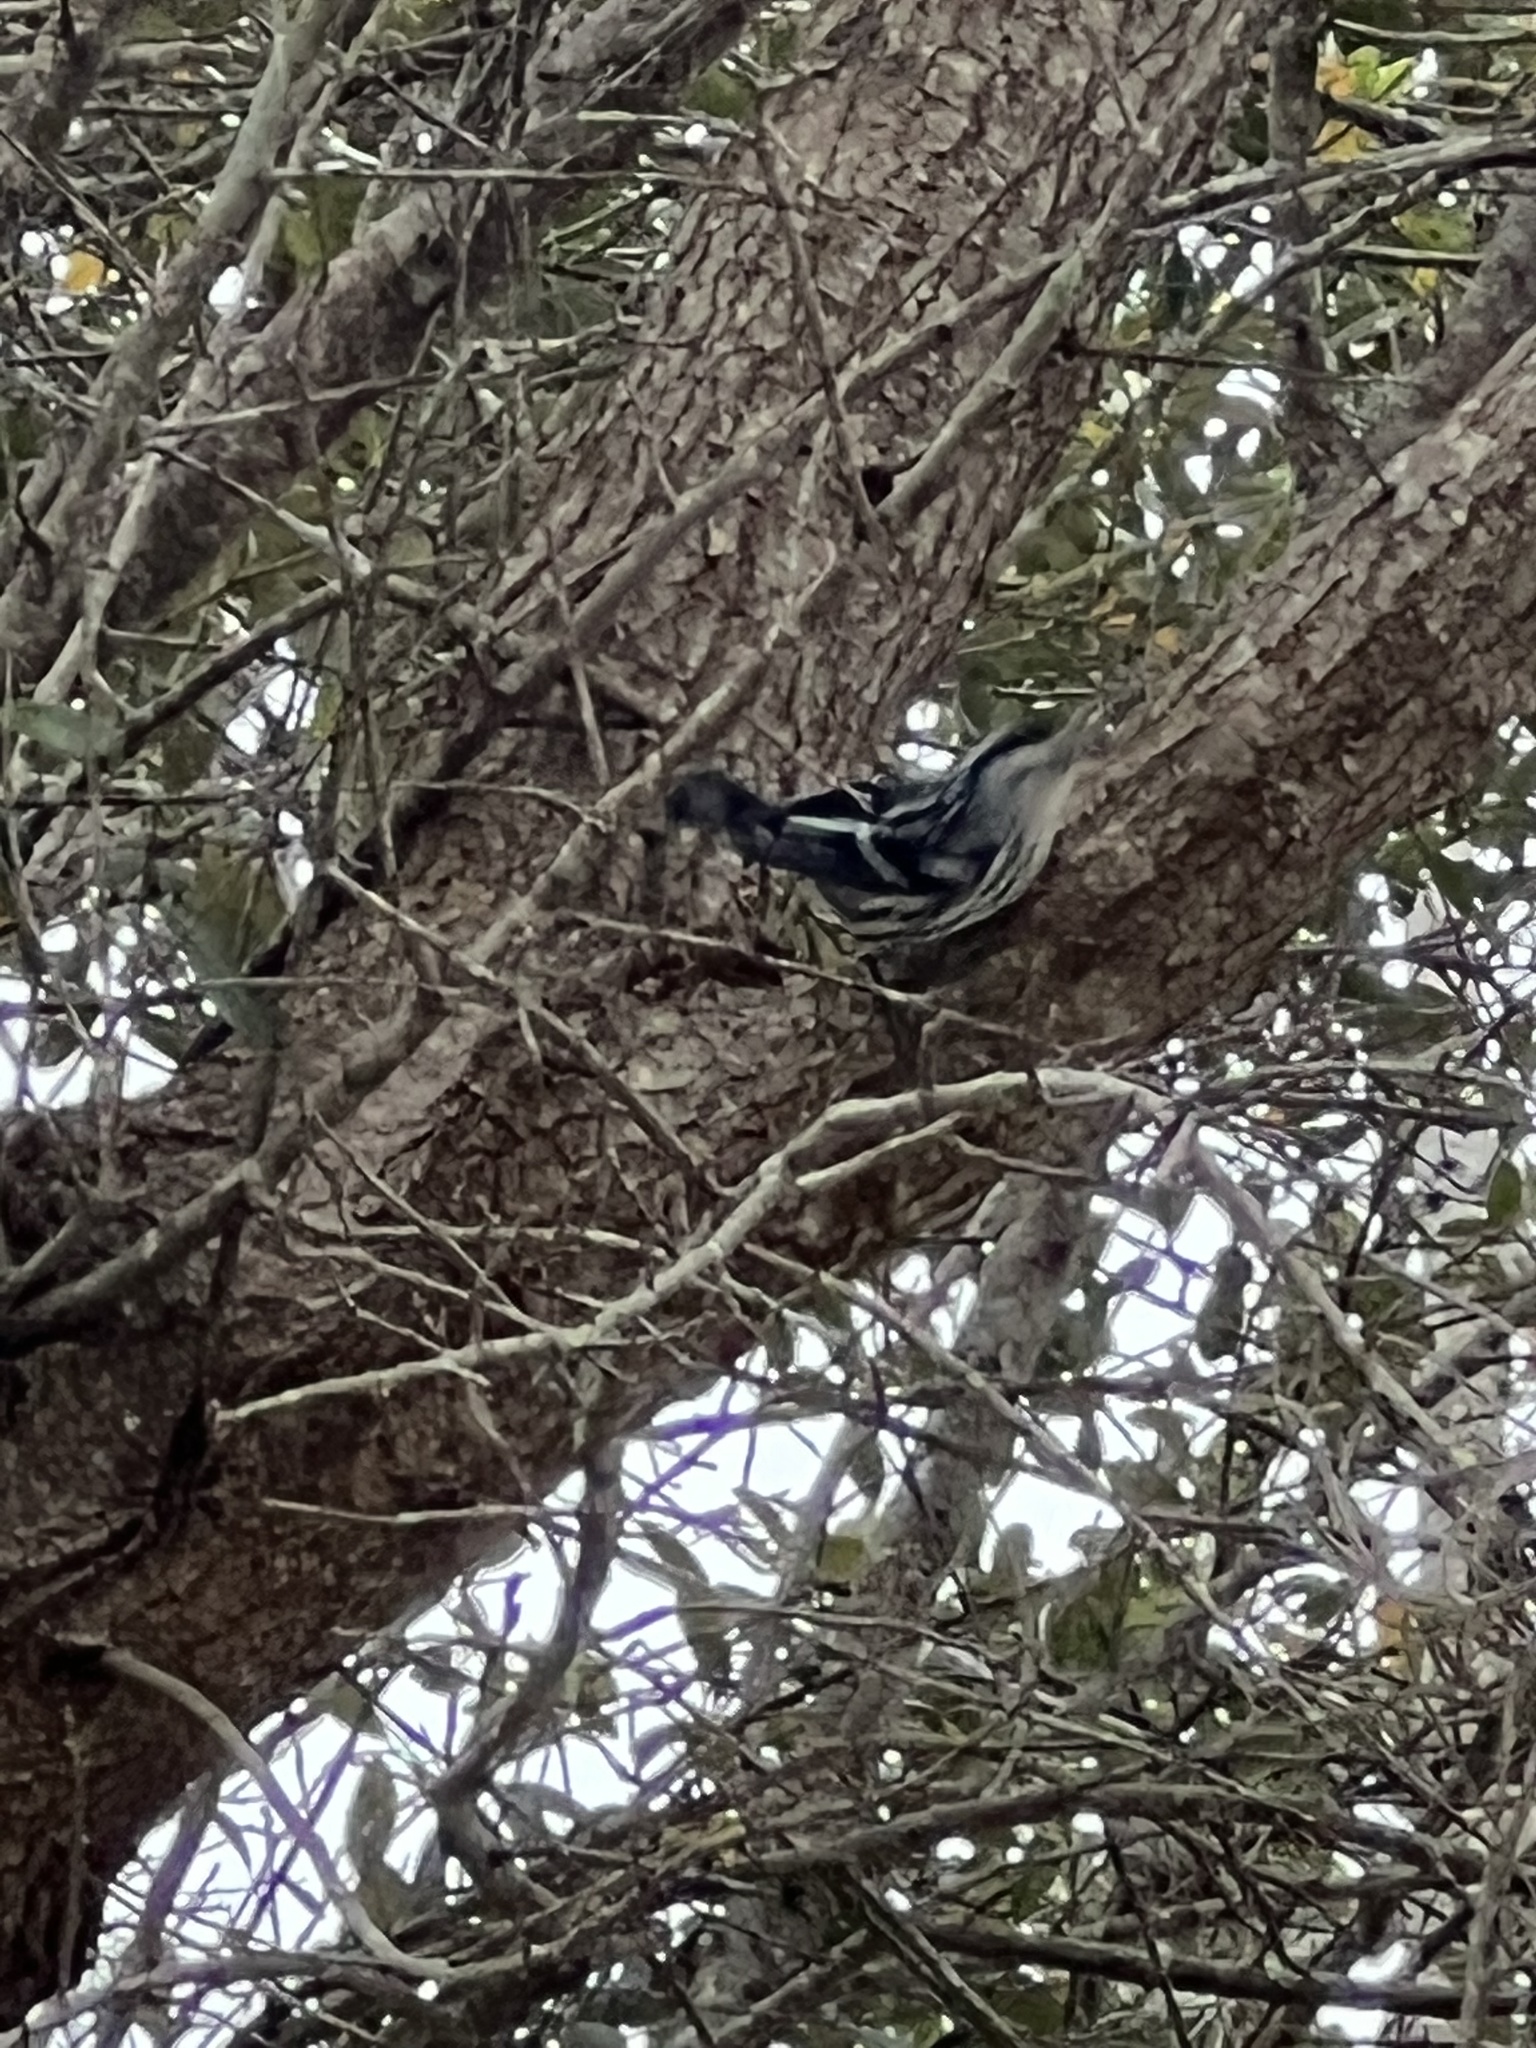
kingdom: Animalia
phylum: Chordata
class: Aves
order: Passeriformes
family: Parulidae
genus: Mniotilta
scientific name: Mniotilta varia
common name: Black-and-white warbler
